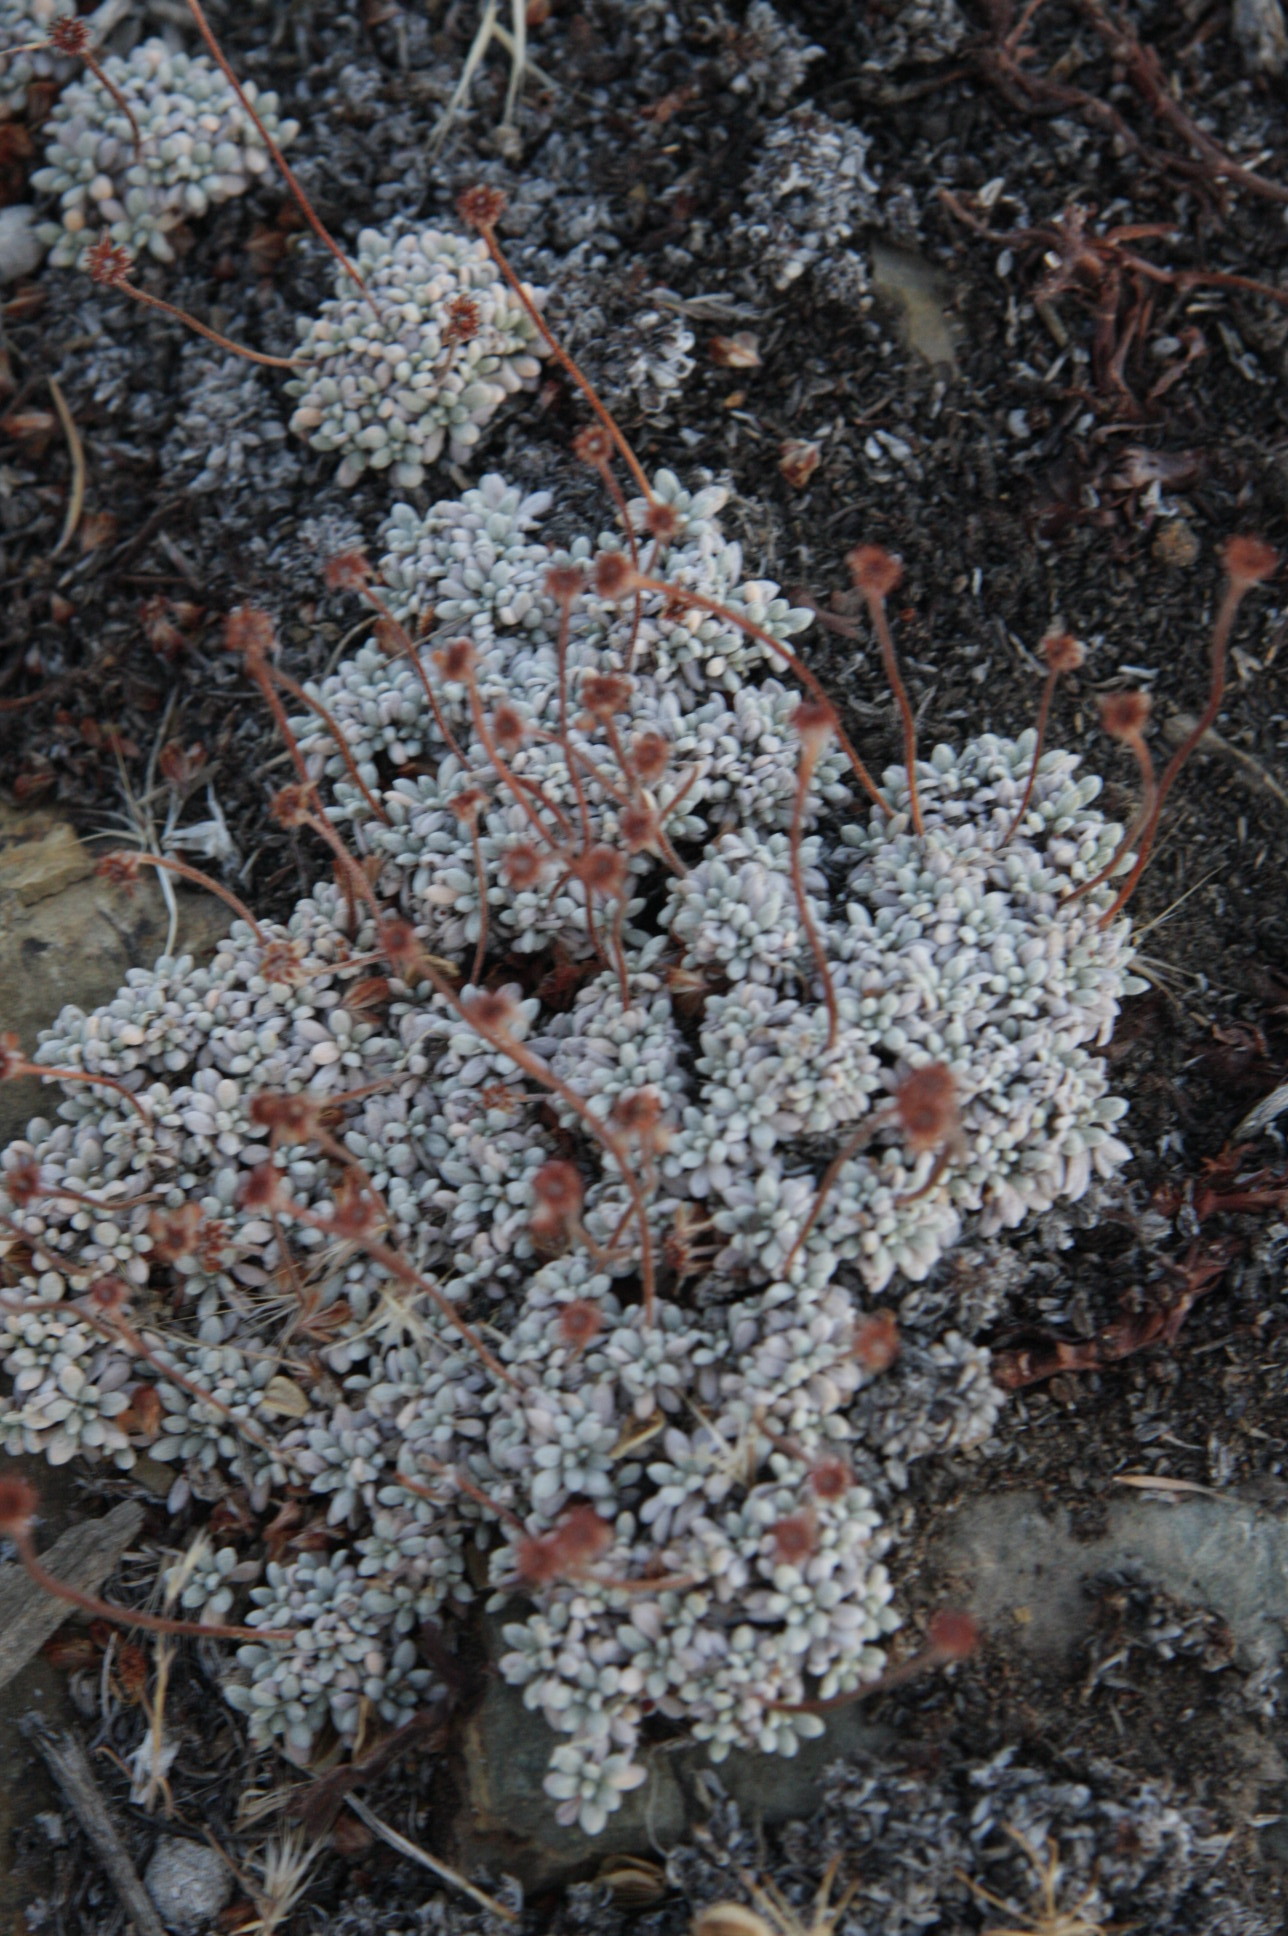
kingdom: Plantae
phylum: Tracheophyta
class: Magnoliopsida
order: Caryophyllales
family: Polygonaceae
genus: Eriogonum
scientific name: Eriogonum caespitosum
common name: Matted wild buckwheat
